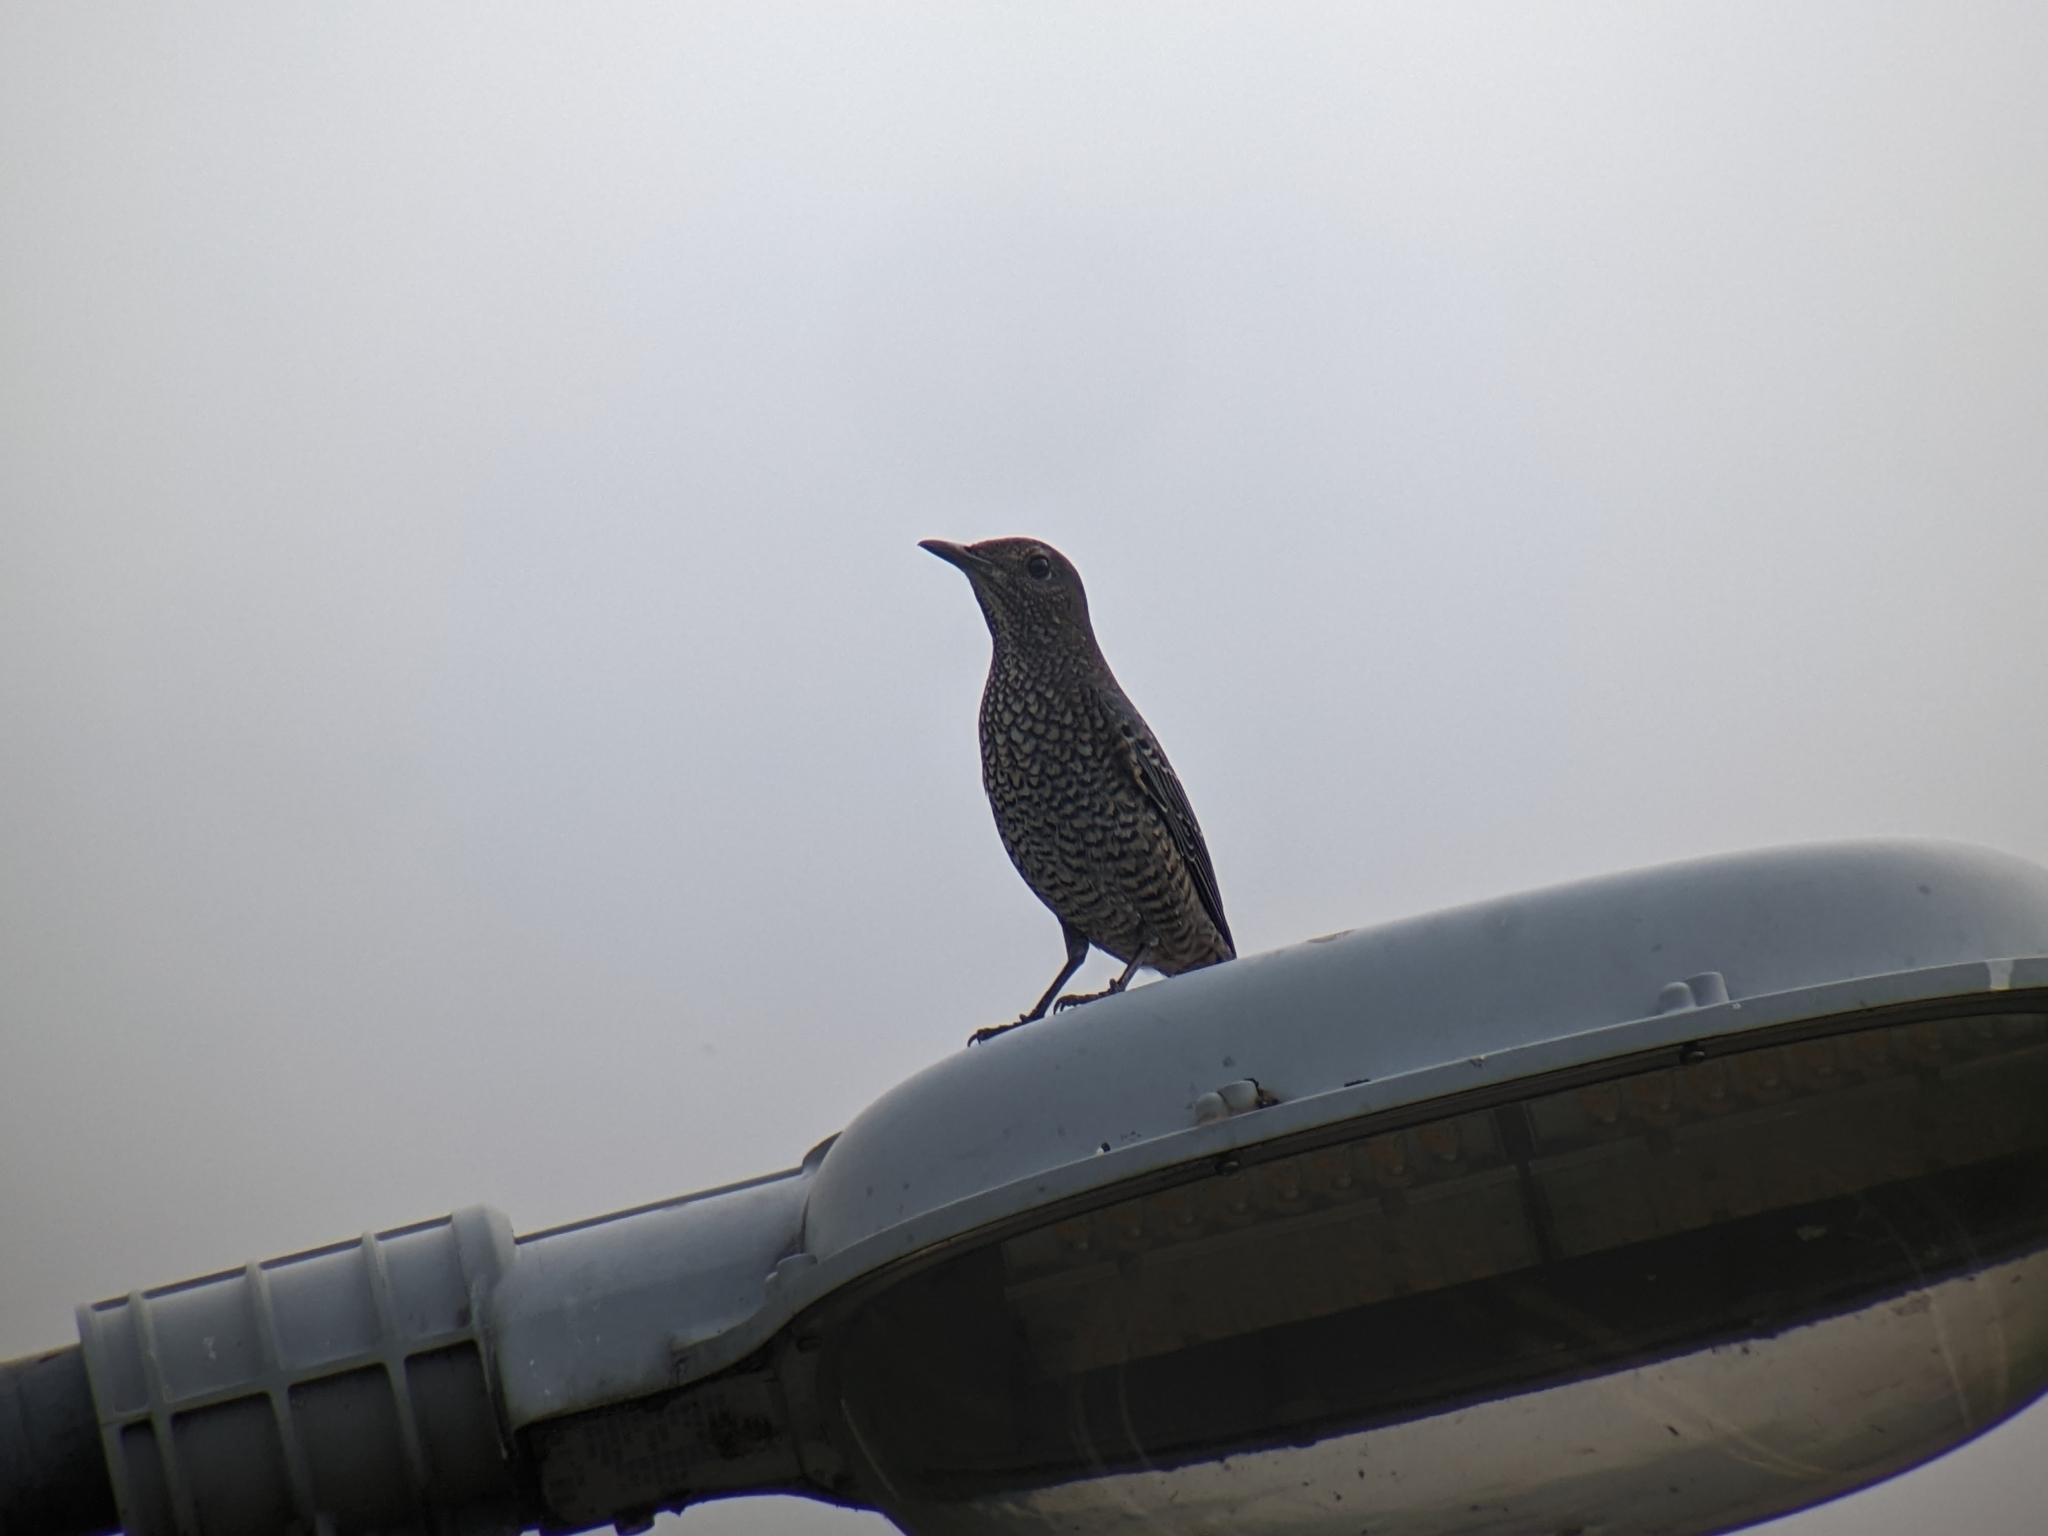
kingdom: Animalia
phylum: Chordata
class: Aves
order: Passeriformes
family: Muscicapidae
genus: Monticola
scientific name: Monticola solitarius
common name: Blue rock thrush
